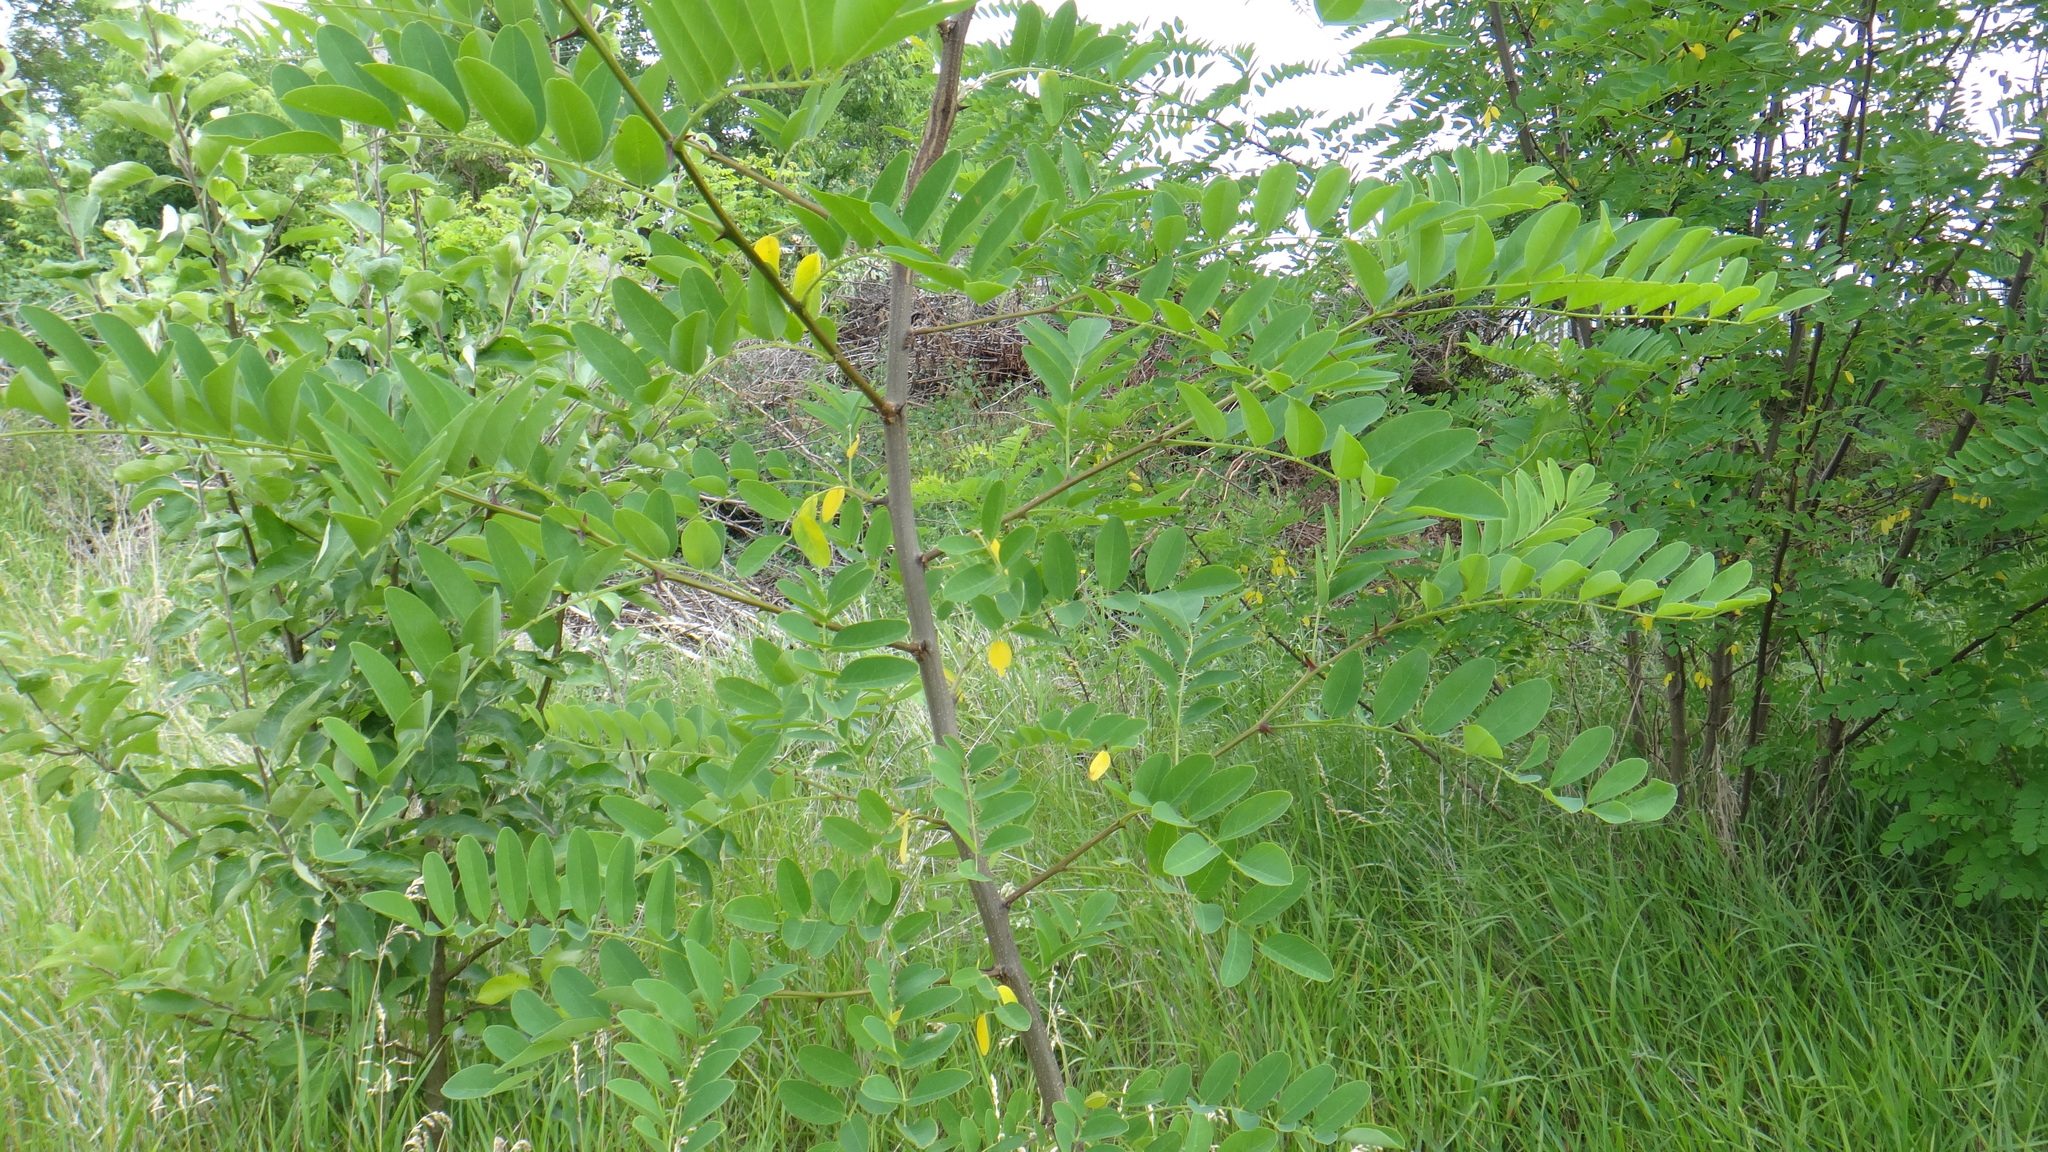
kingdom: Plantae
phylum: Tracheophyta
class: Magnoliopsida
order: Fabales
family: Fabaceae
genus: Robinia
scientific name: Robinia pseudoacacia
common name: Black locust
